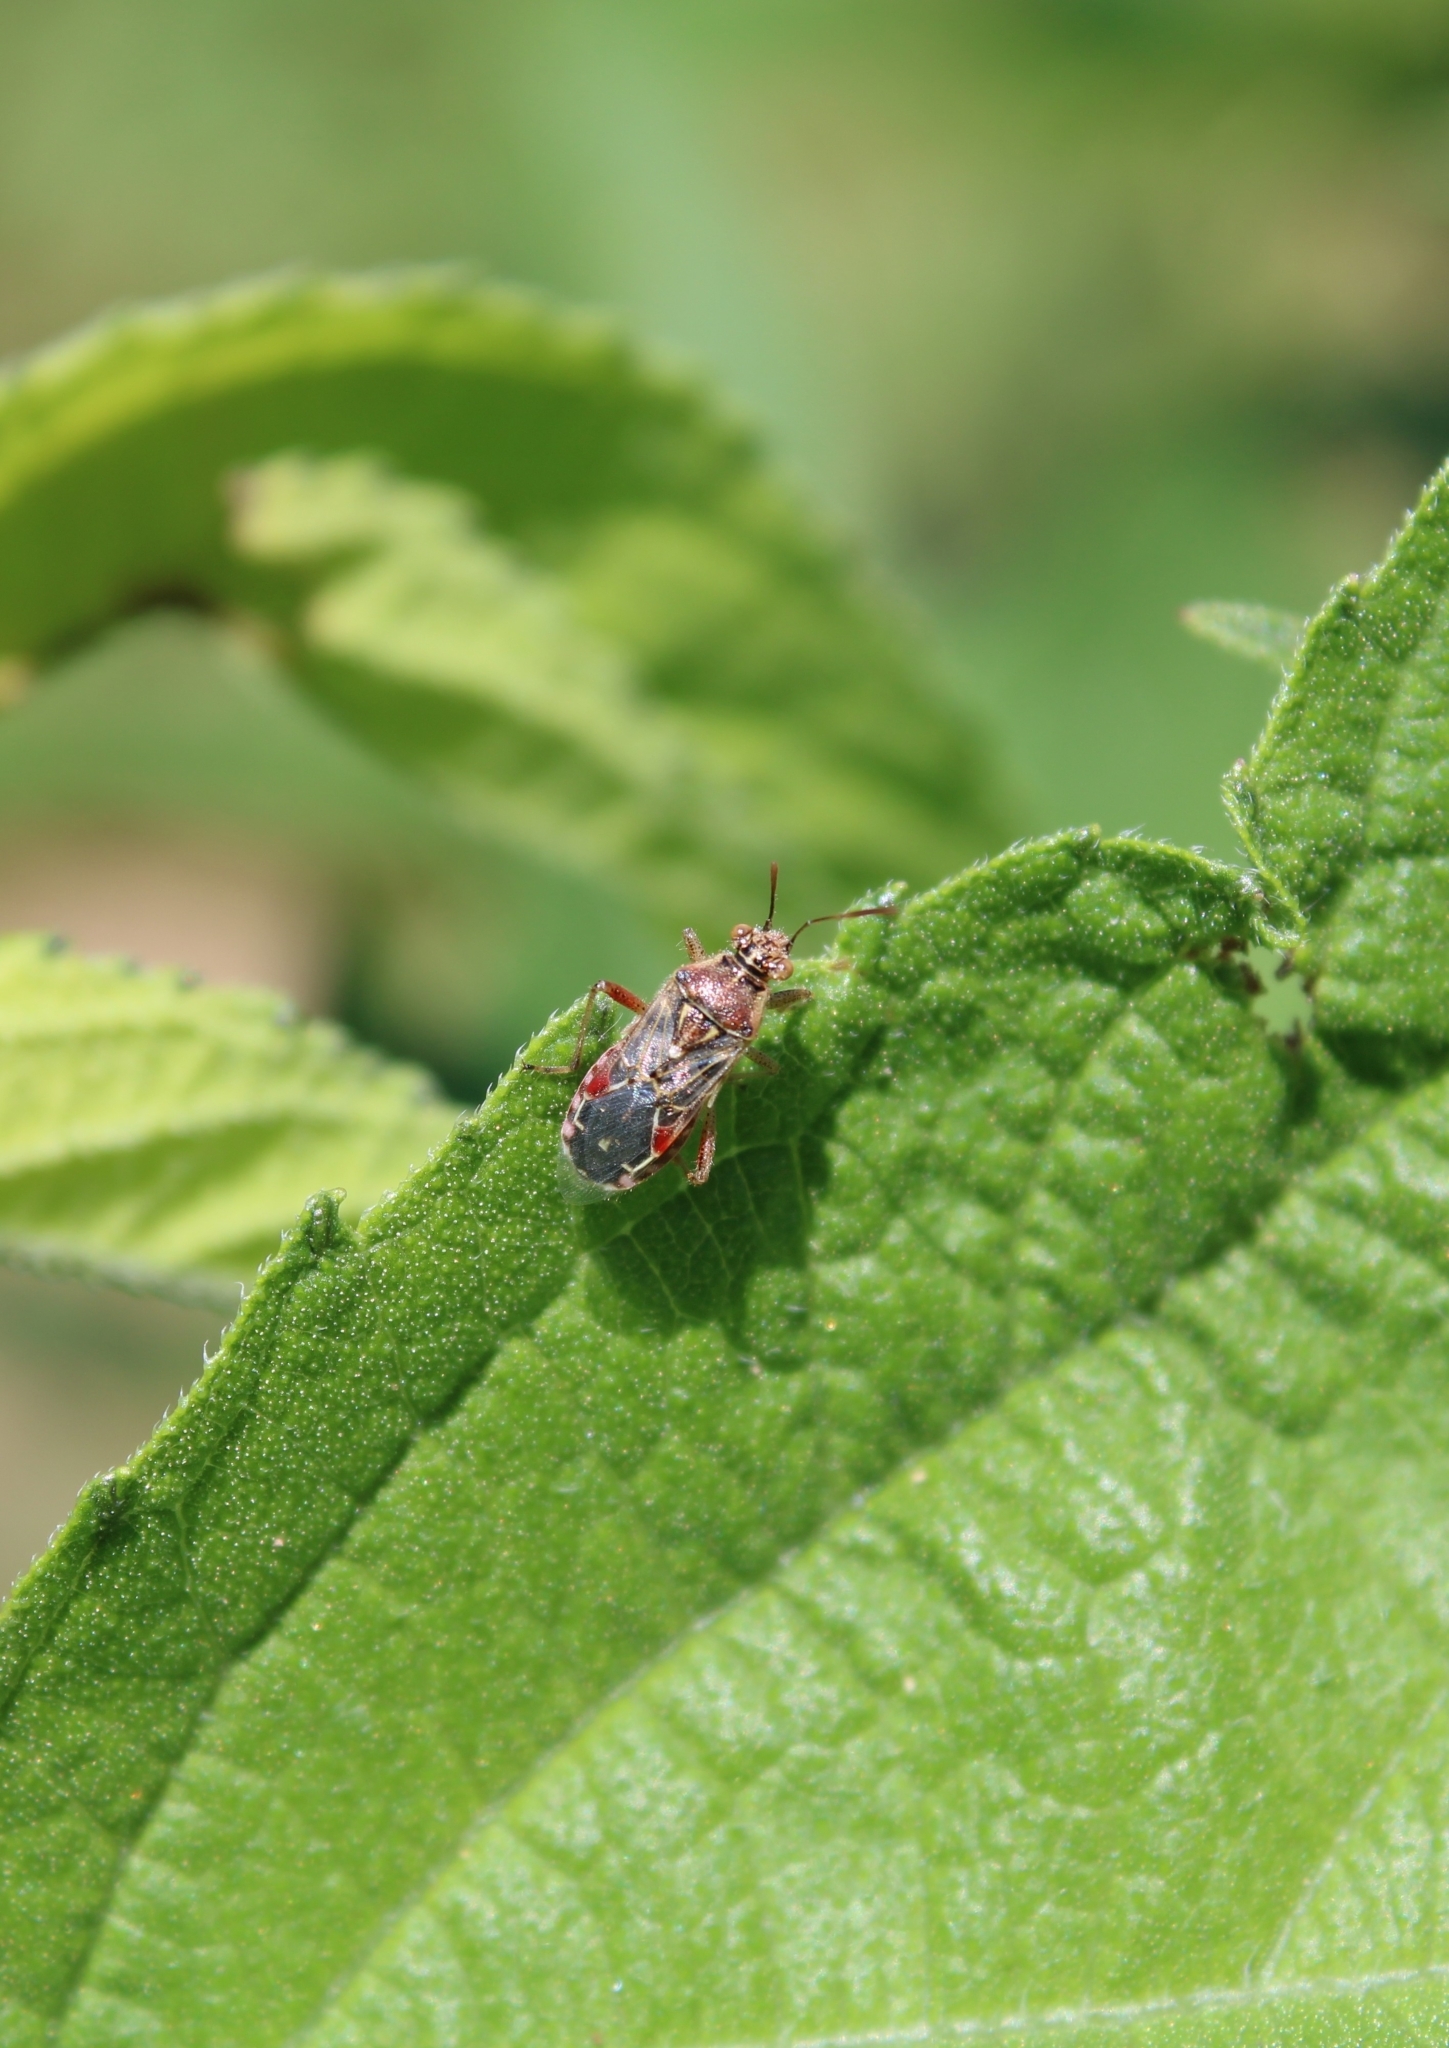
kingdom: Animalia
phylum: Arthropoda
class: Insecta
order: Hemiptera
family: Rhopalidae
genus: Liorhyssus
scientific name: Liorhyssus hyalinus
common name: Scentless plant bug
